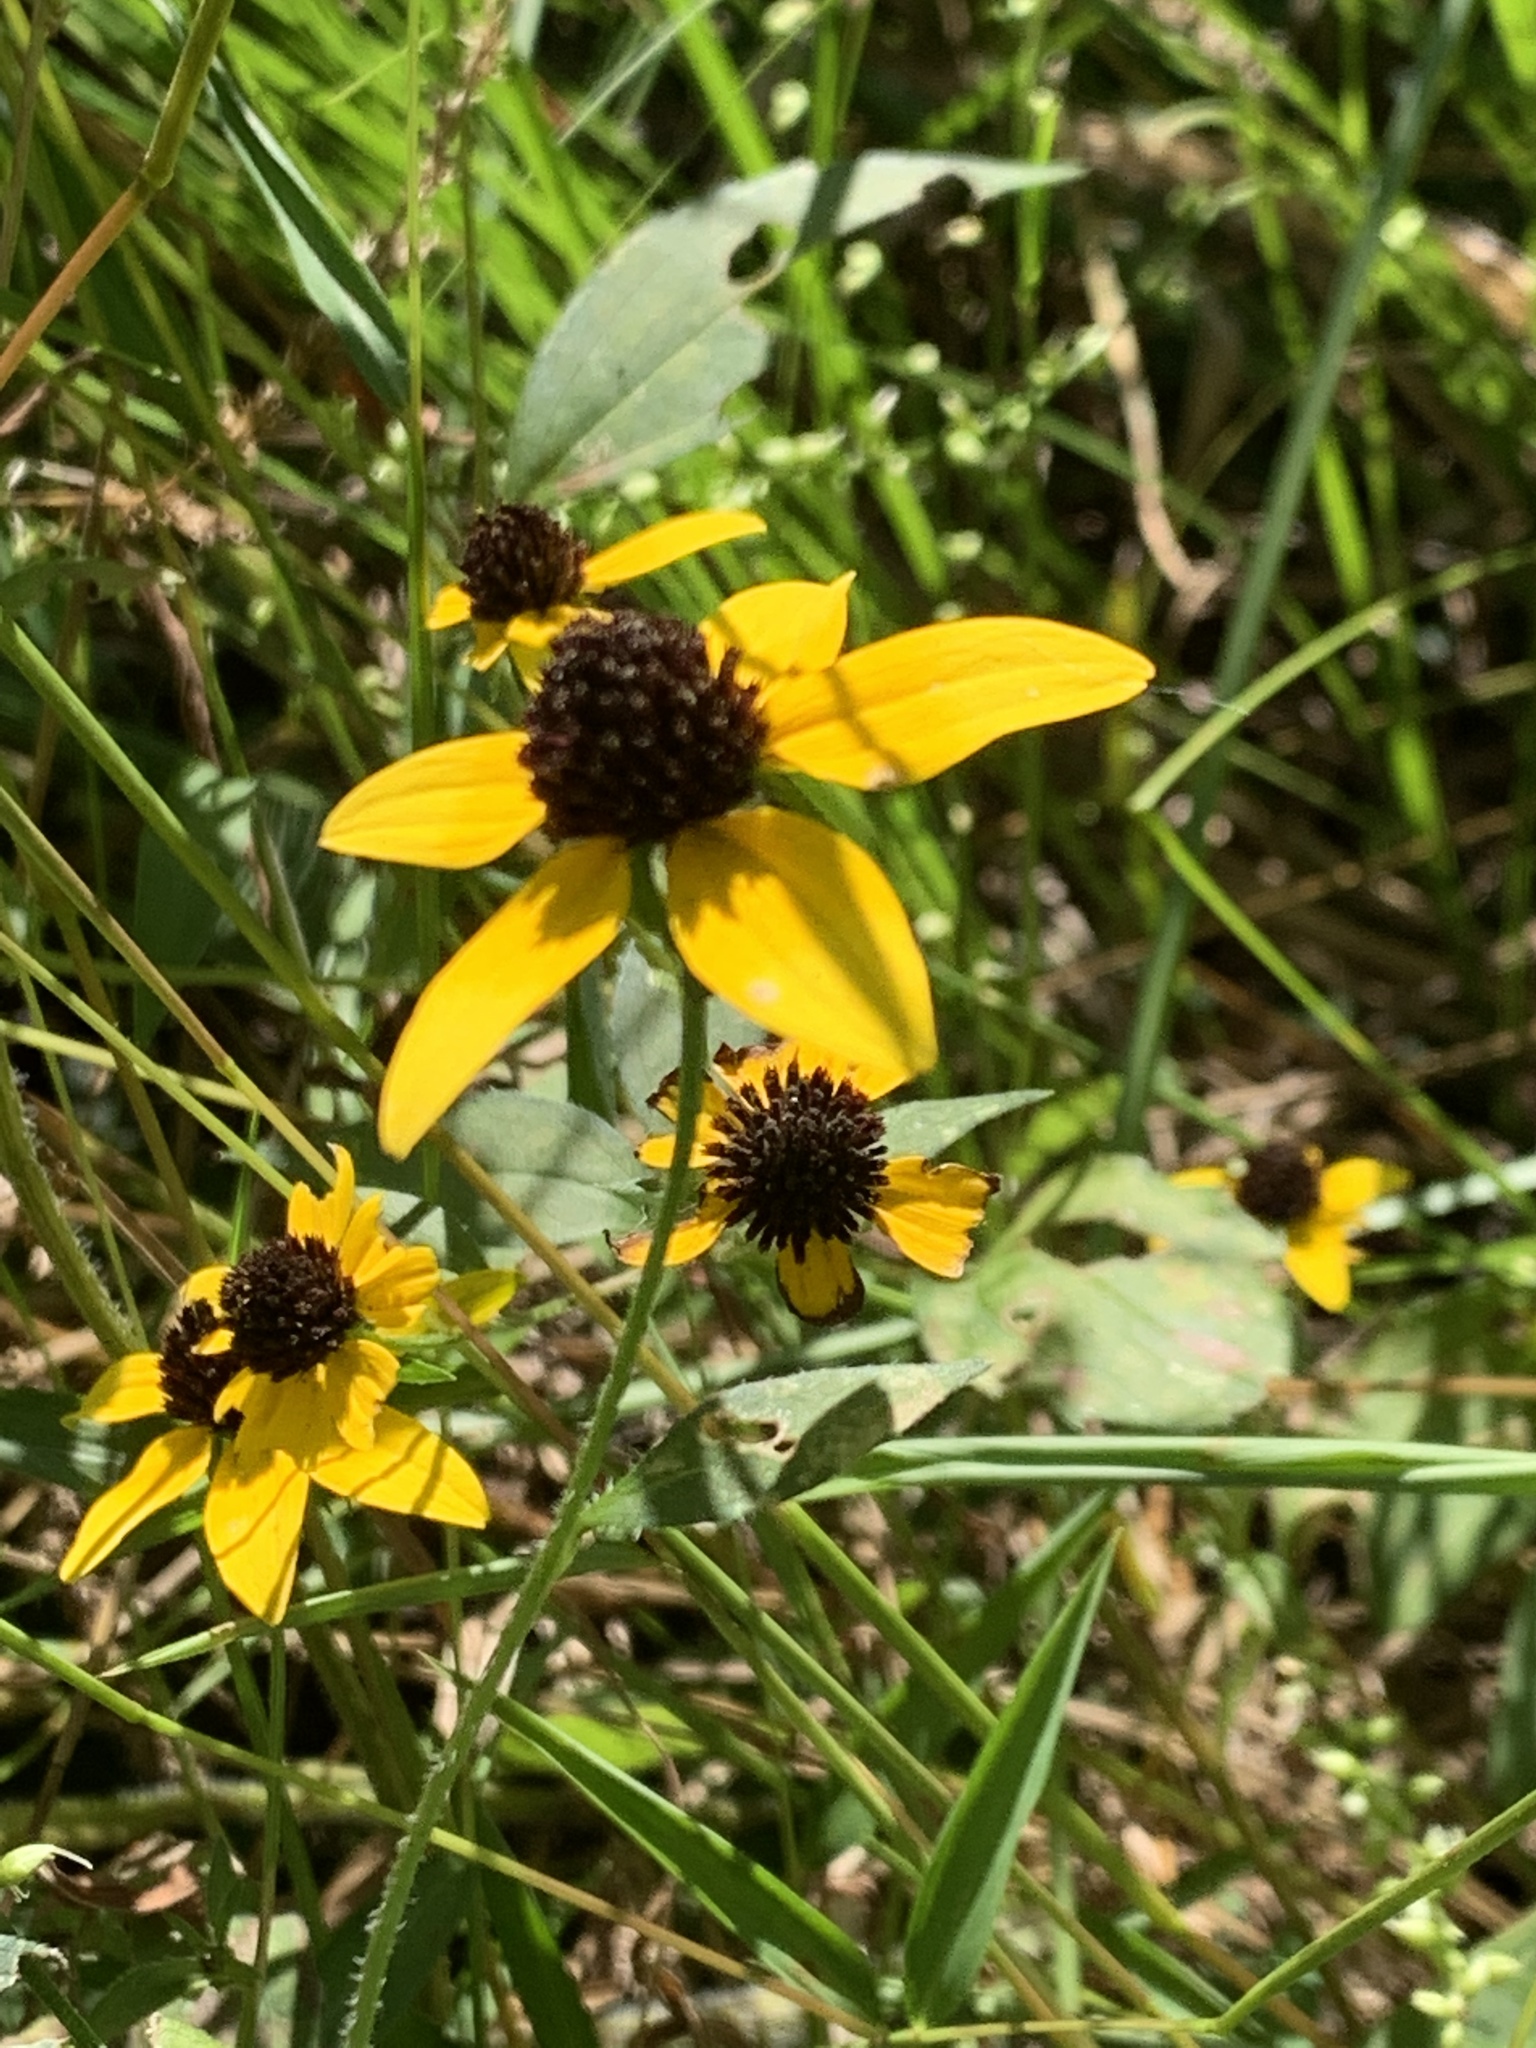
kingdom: Plantae
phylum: Tracheophyta
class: Magnoliopsida
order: Asterales
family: Asteraceae
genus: Rudbeckia
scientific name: Rudbeckia triloba
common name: Thin-leaved coneflower
